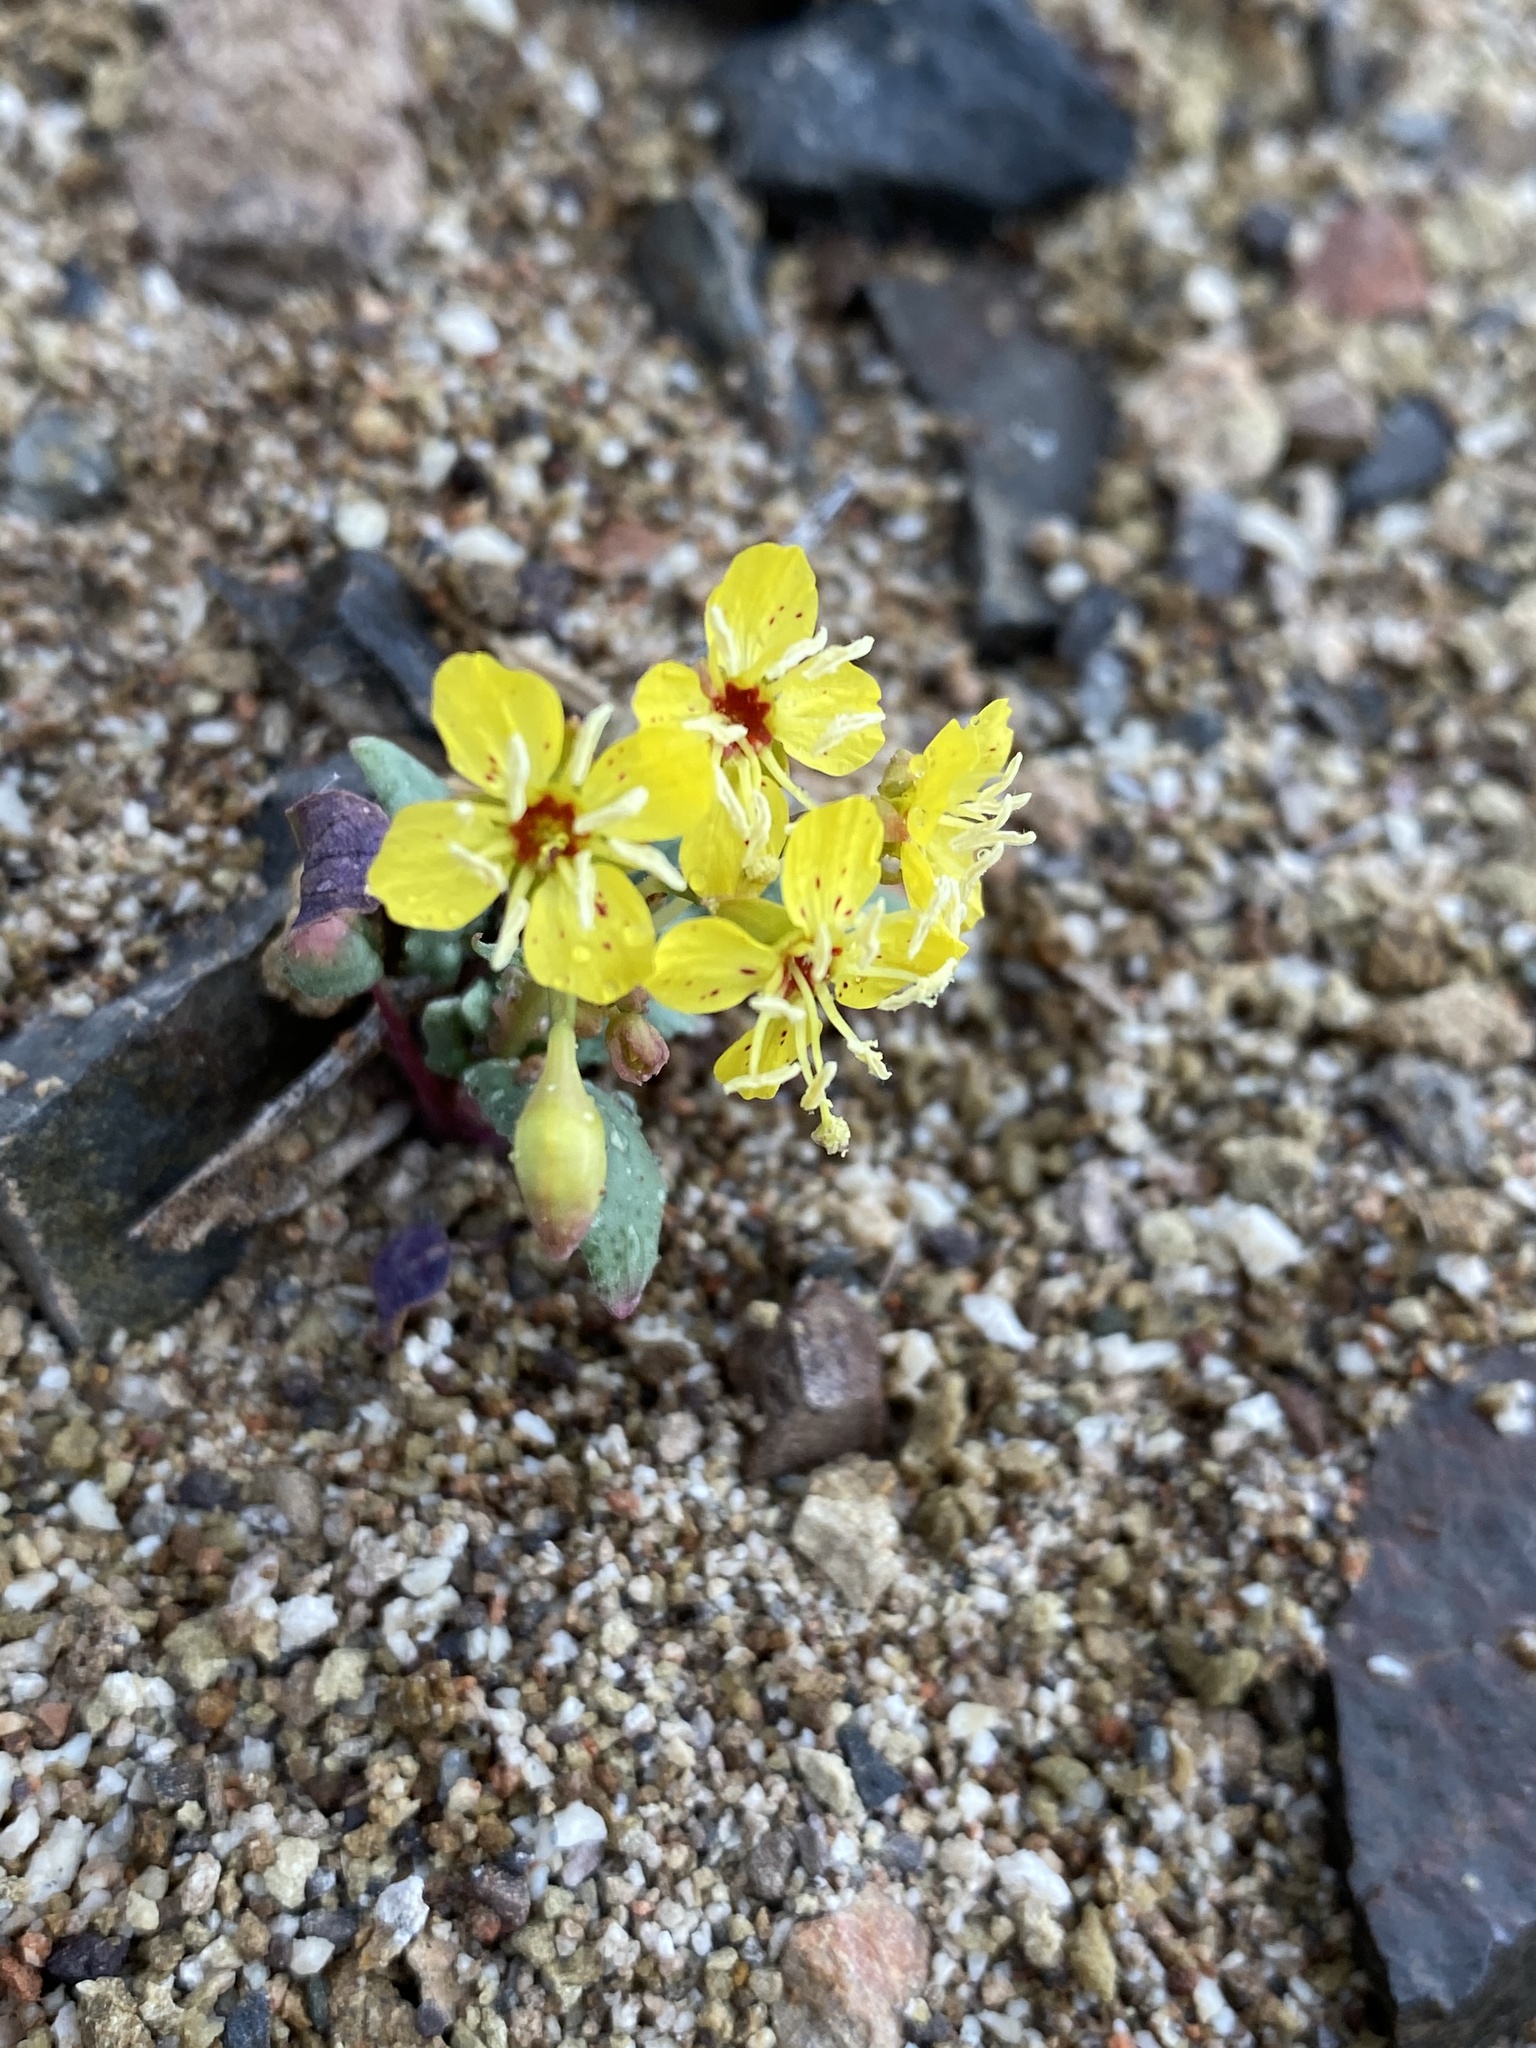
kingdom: Plantae
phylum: Tracheophyta
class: Magnoliopsida
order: Myrtales
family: Onagraceae
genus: Chylismia
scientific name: Chylismia claviformis
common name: Browneyes
